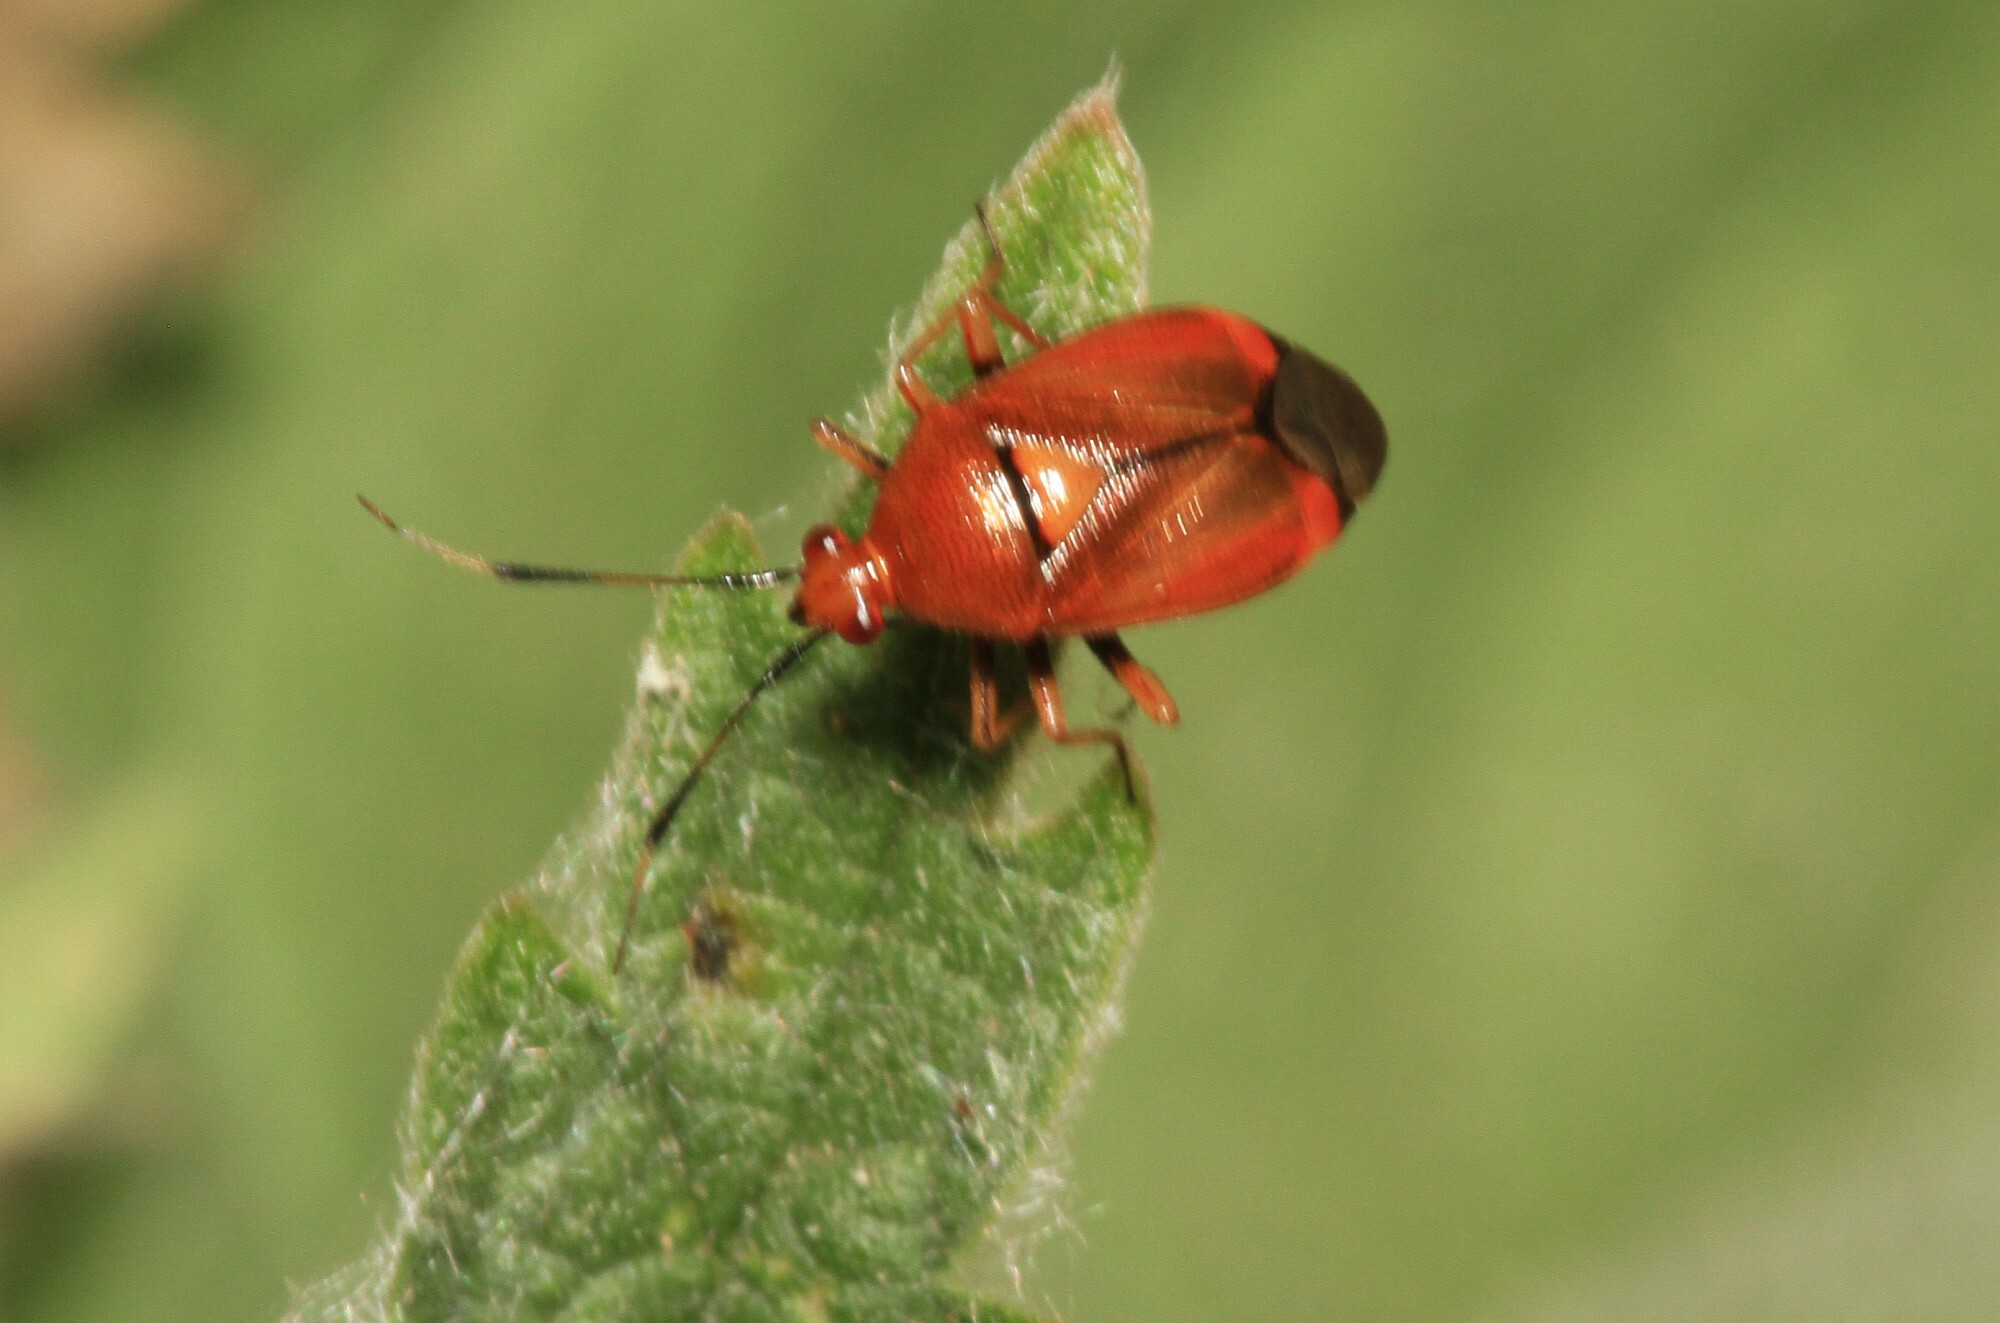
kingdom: Animalia
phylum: Arthropoda
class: Insecta
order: Hemiptera
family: Miridae
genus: Deraeocoris
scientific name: Deraeocoris ruber
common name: Plant bug
